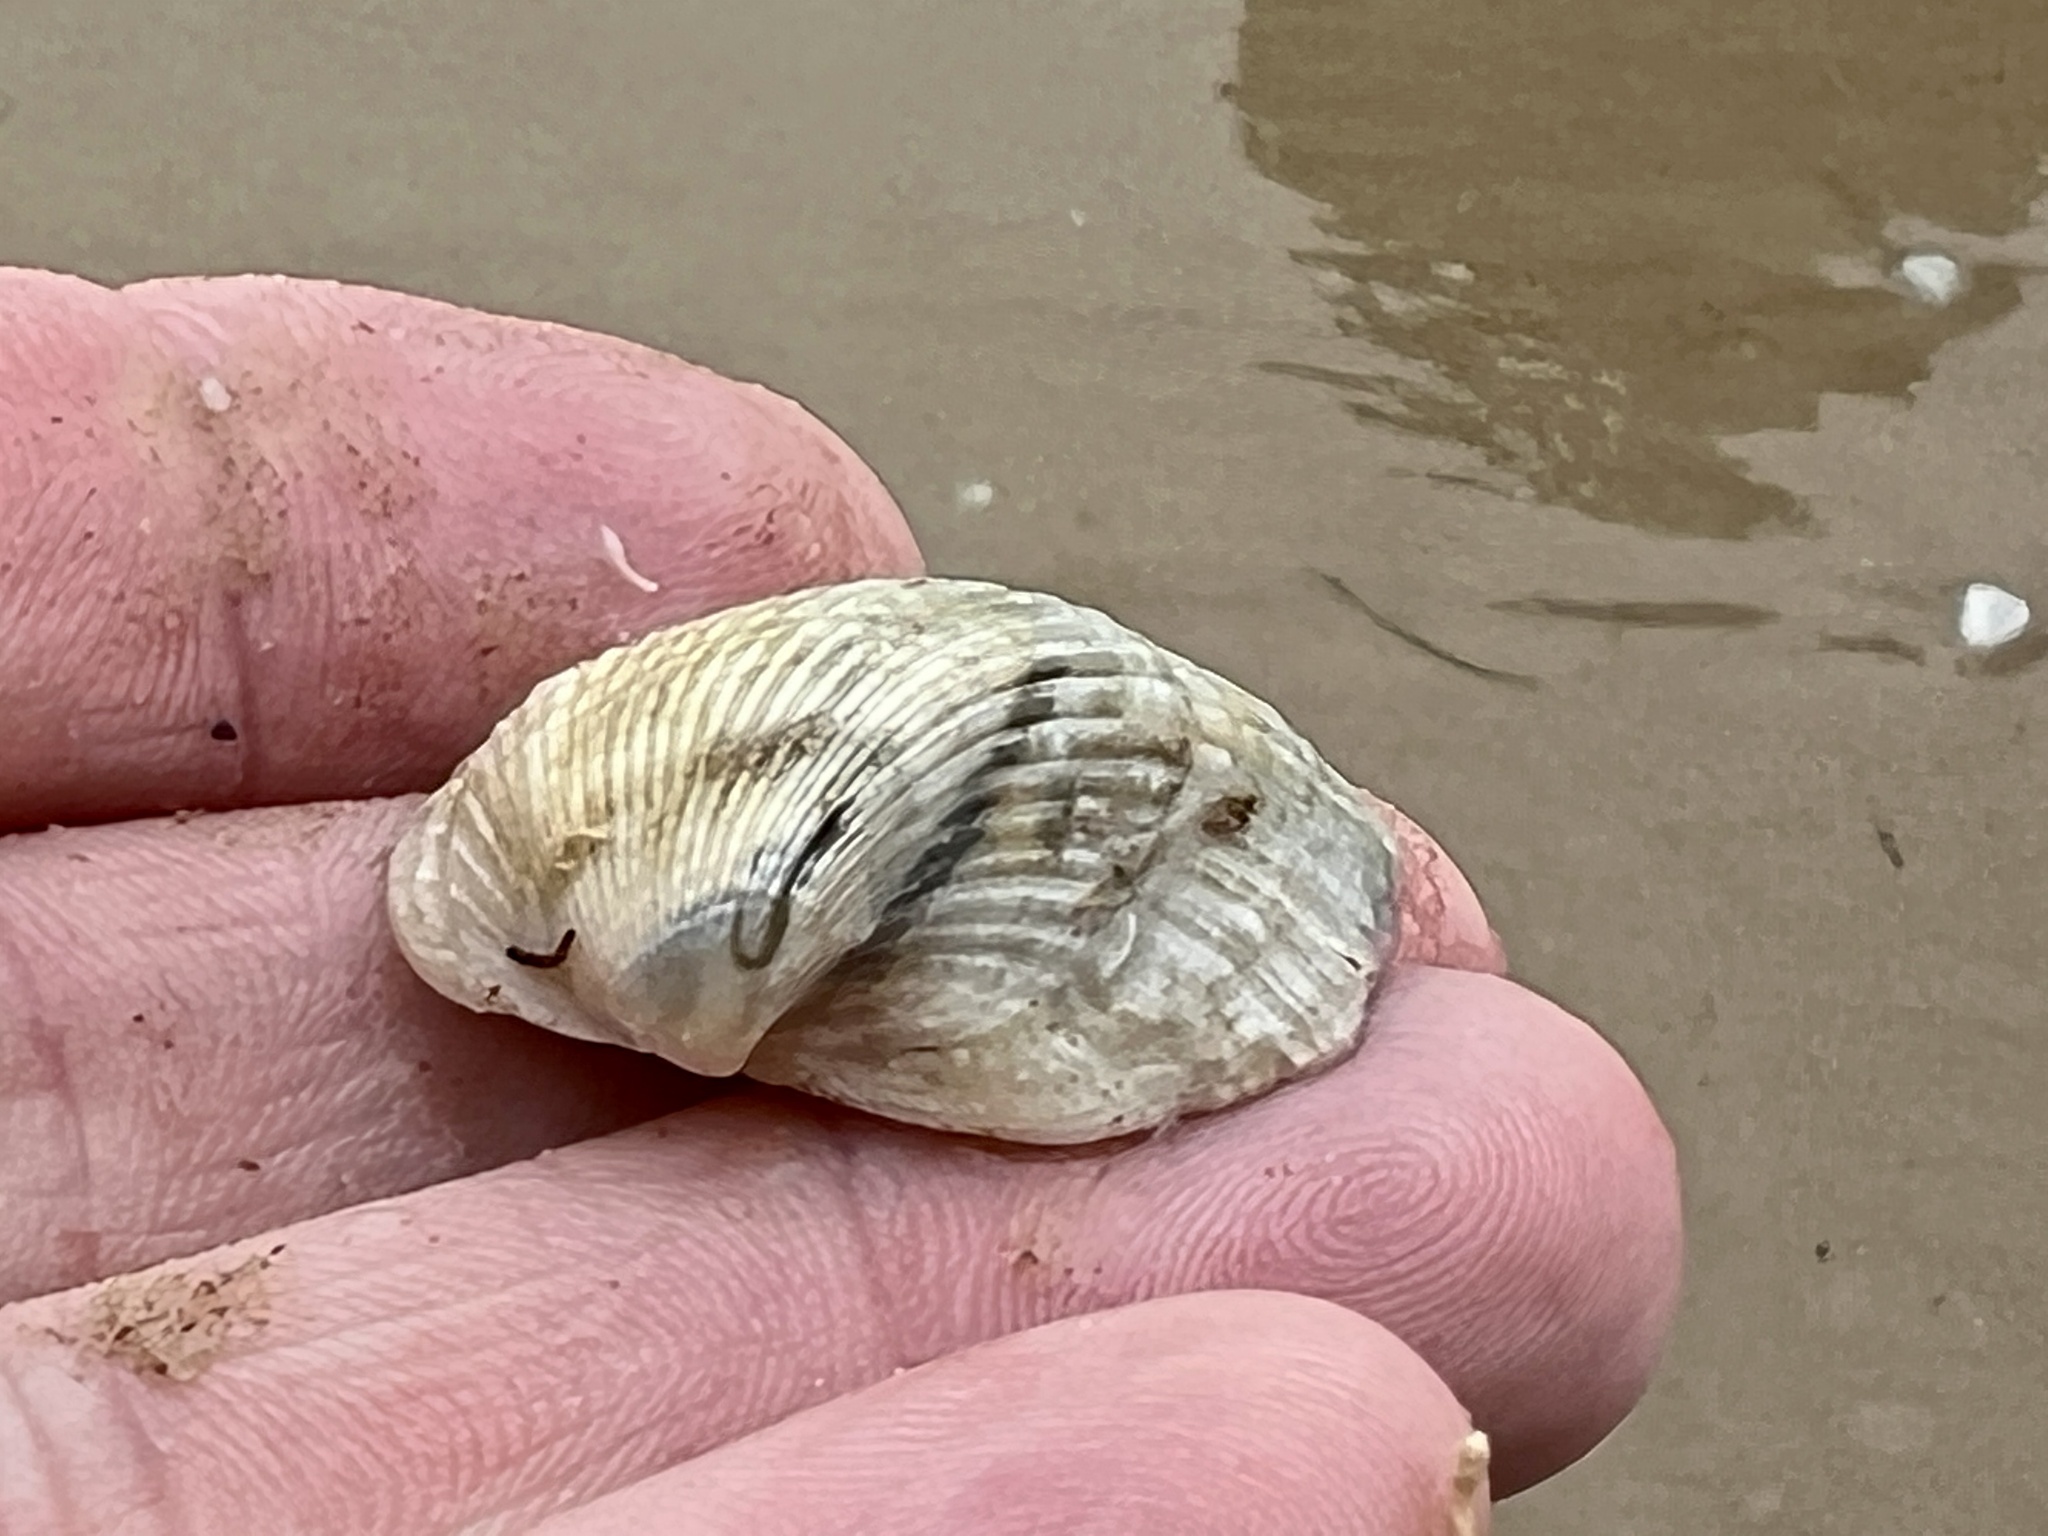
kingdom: Animalia
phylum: Mollusca
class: Bivalvia
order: Arcida
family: Noetiidae
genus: Noetia
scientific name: Noetia ponderosa
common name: Ponderous ark
